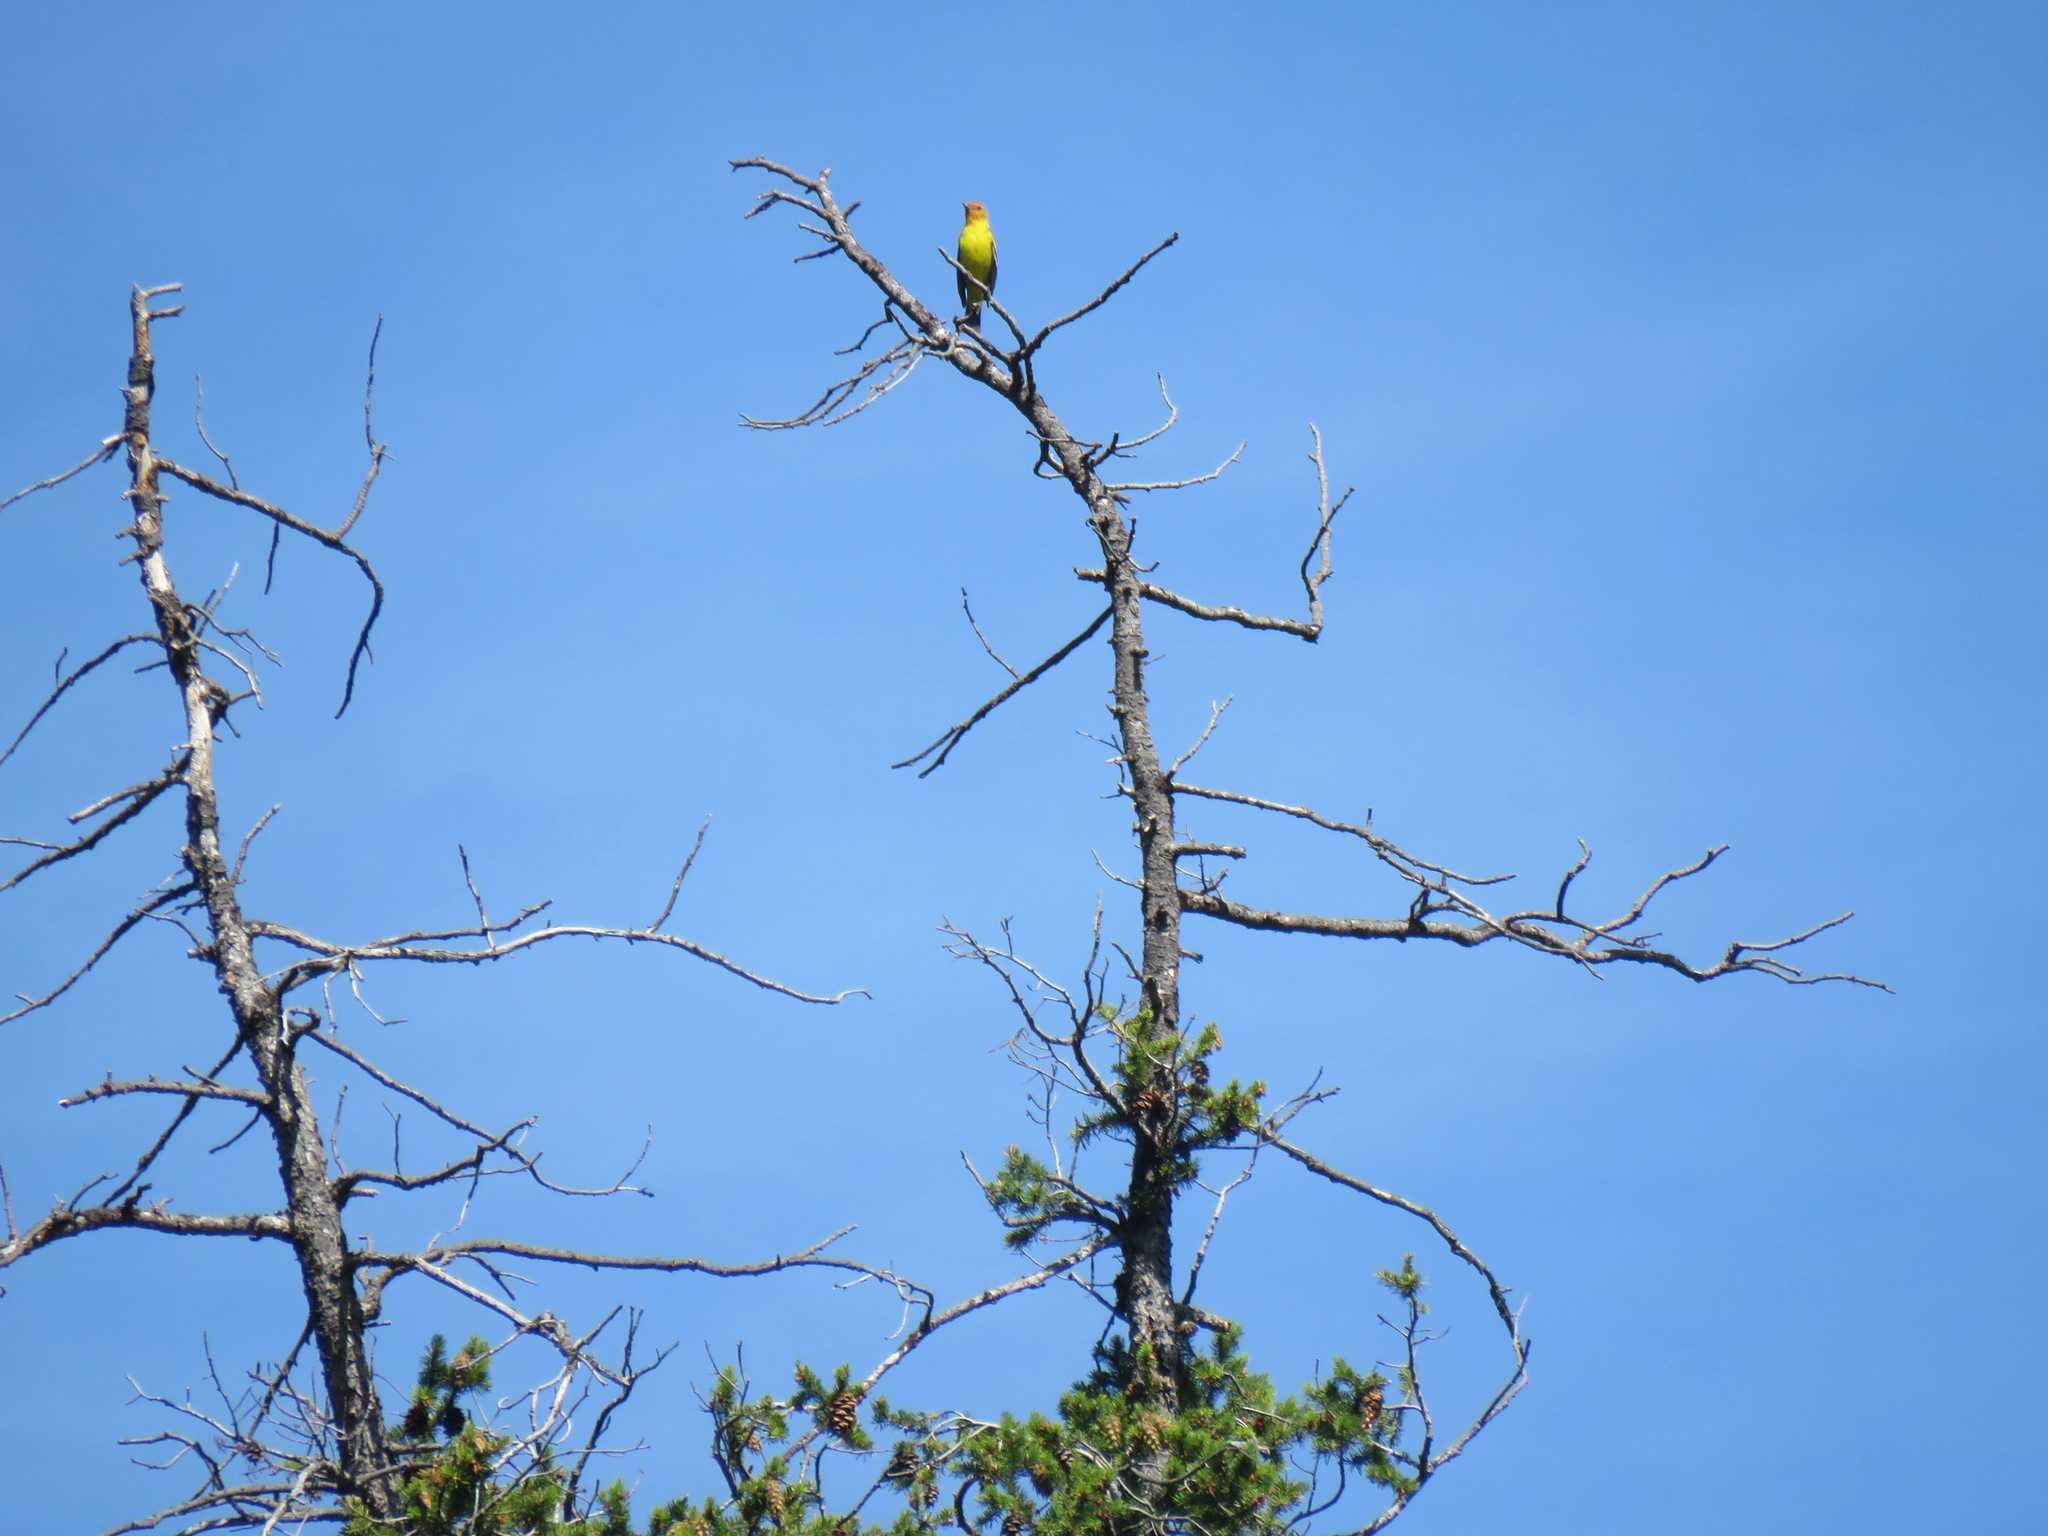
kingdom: Animalia
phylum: Chordata
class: Aves
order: Passeriformes
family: Cardinalidae
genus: Piranga
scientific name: Piranga ludoviciana
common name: Western tanager
